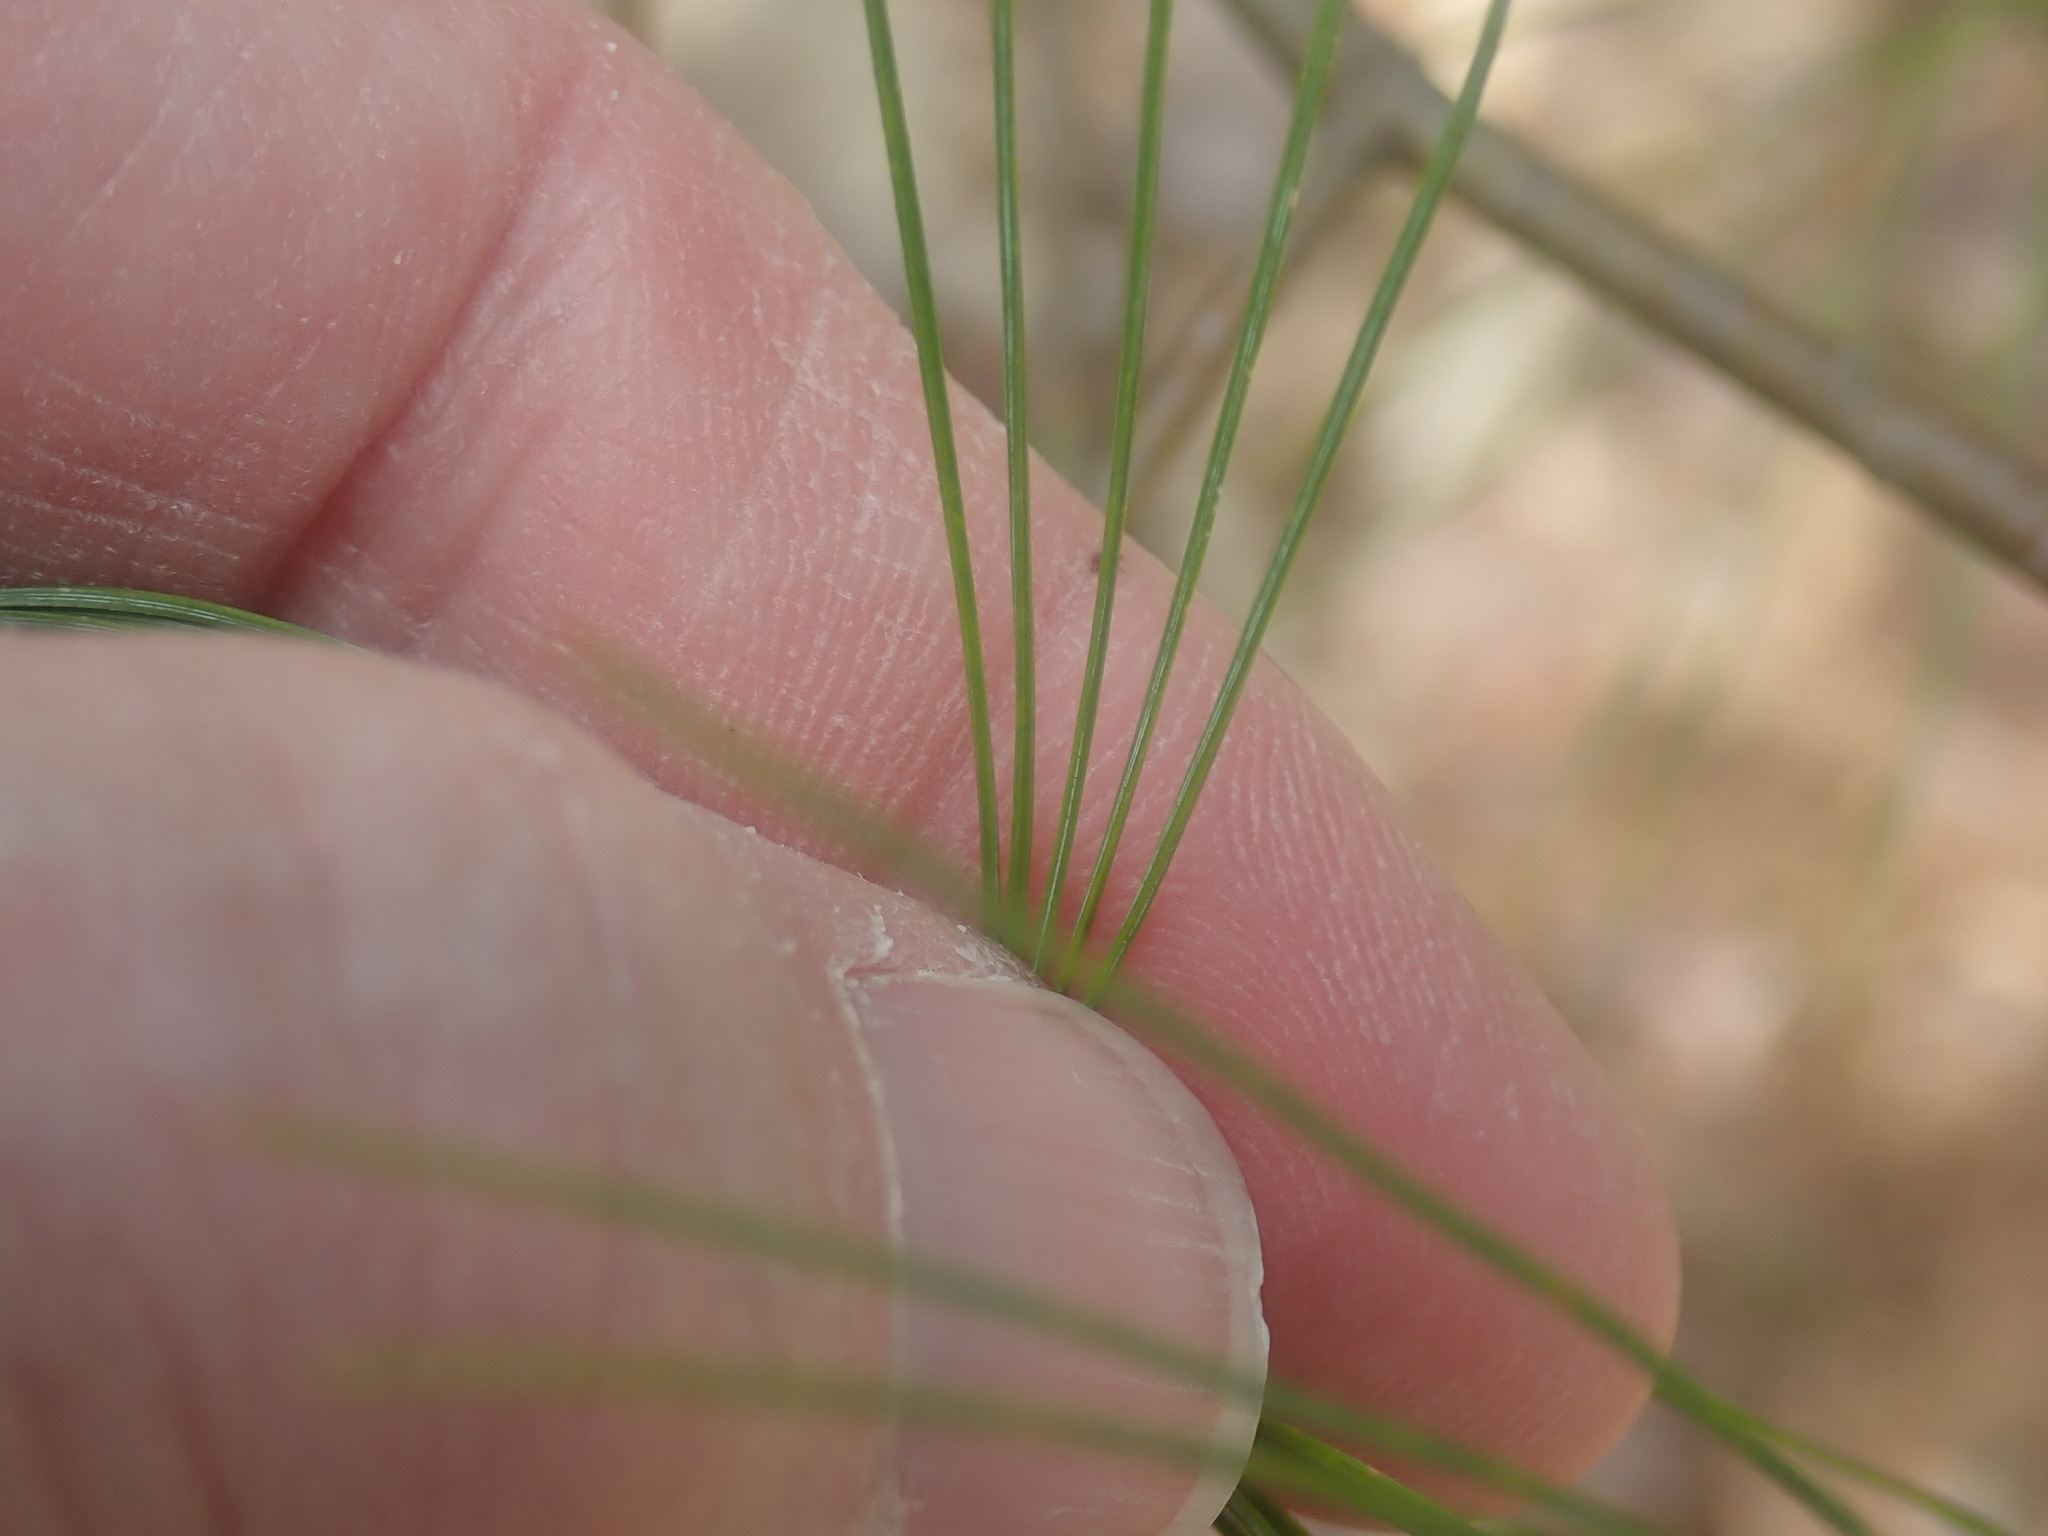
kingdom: Plantae
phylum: Tracheophyta
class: Pinopsida
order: Pinales
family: Pinaceae
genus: Pinus
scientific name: Pinus strobus
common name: Weymouth pine
